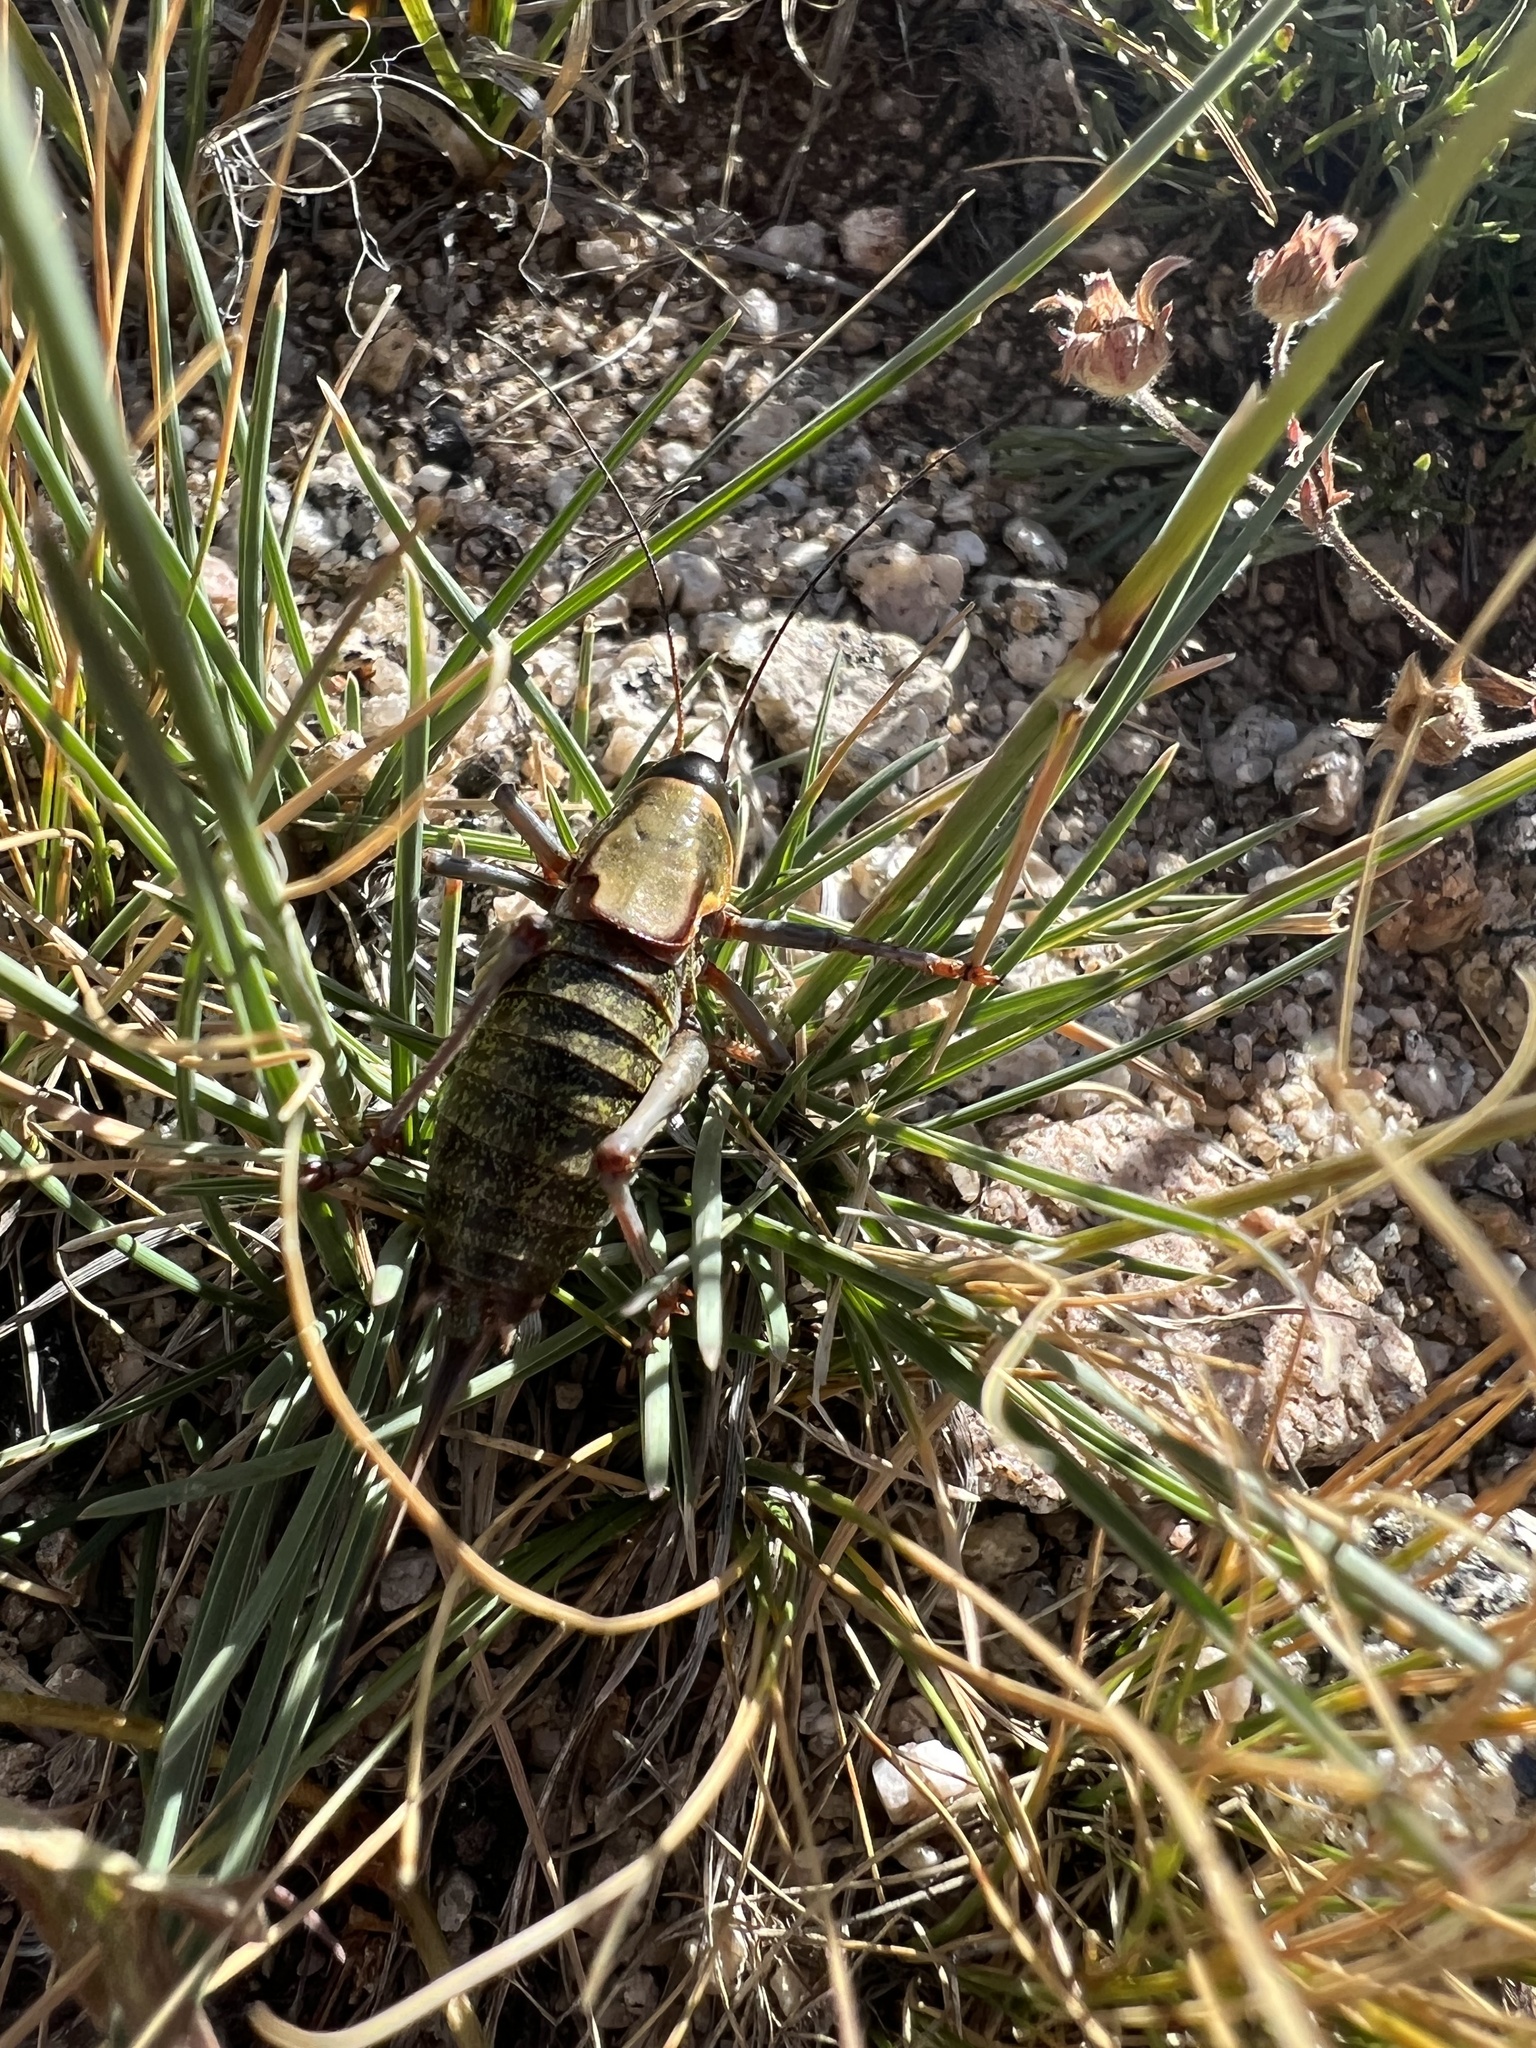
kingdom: Animalia
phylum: Arthropoda
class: Insecta
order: Orthoptera
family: Tettigoniidae
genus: Anabrus
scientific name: Anabrus simplex
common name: Mormon cricket
